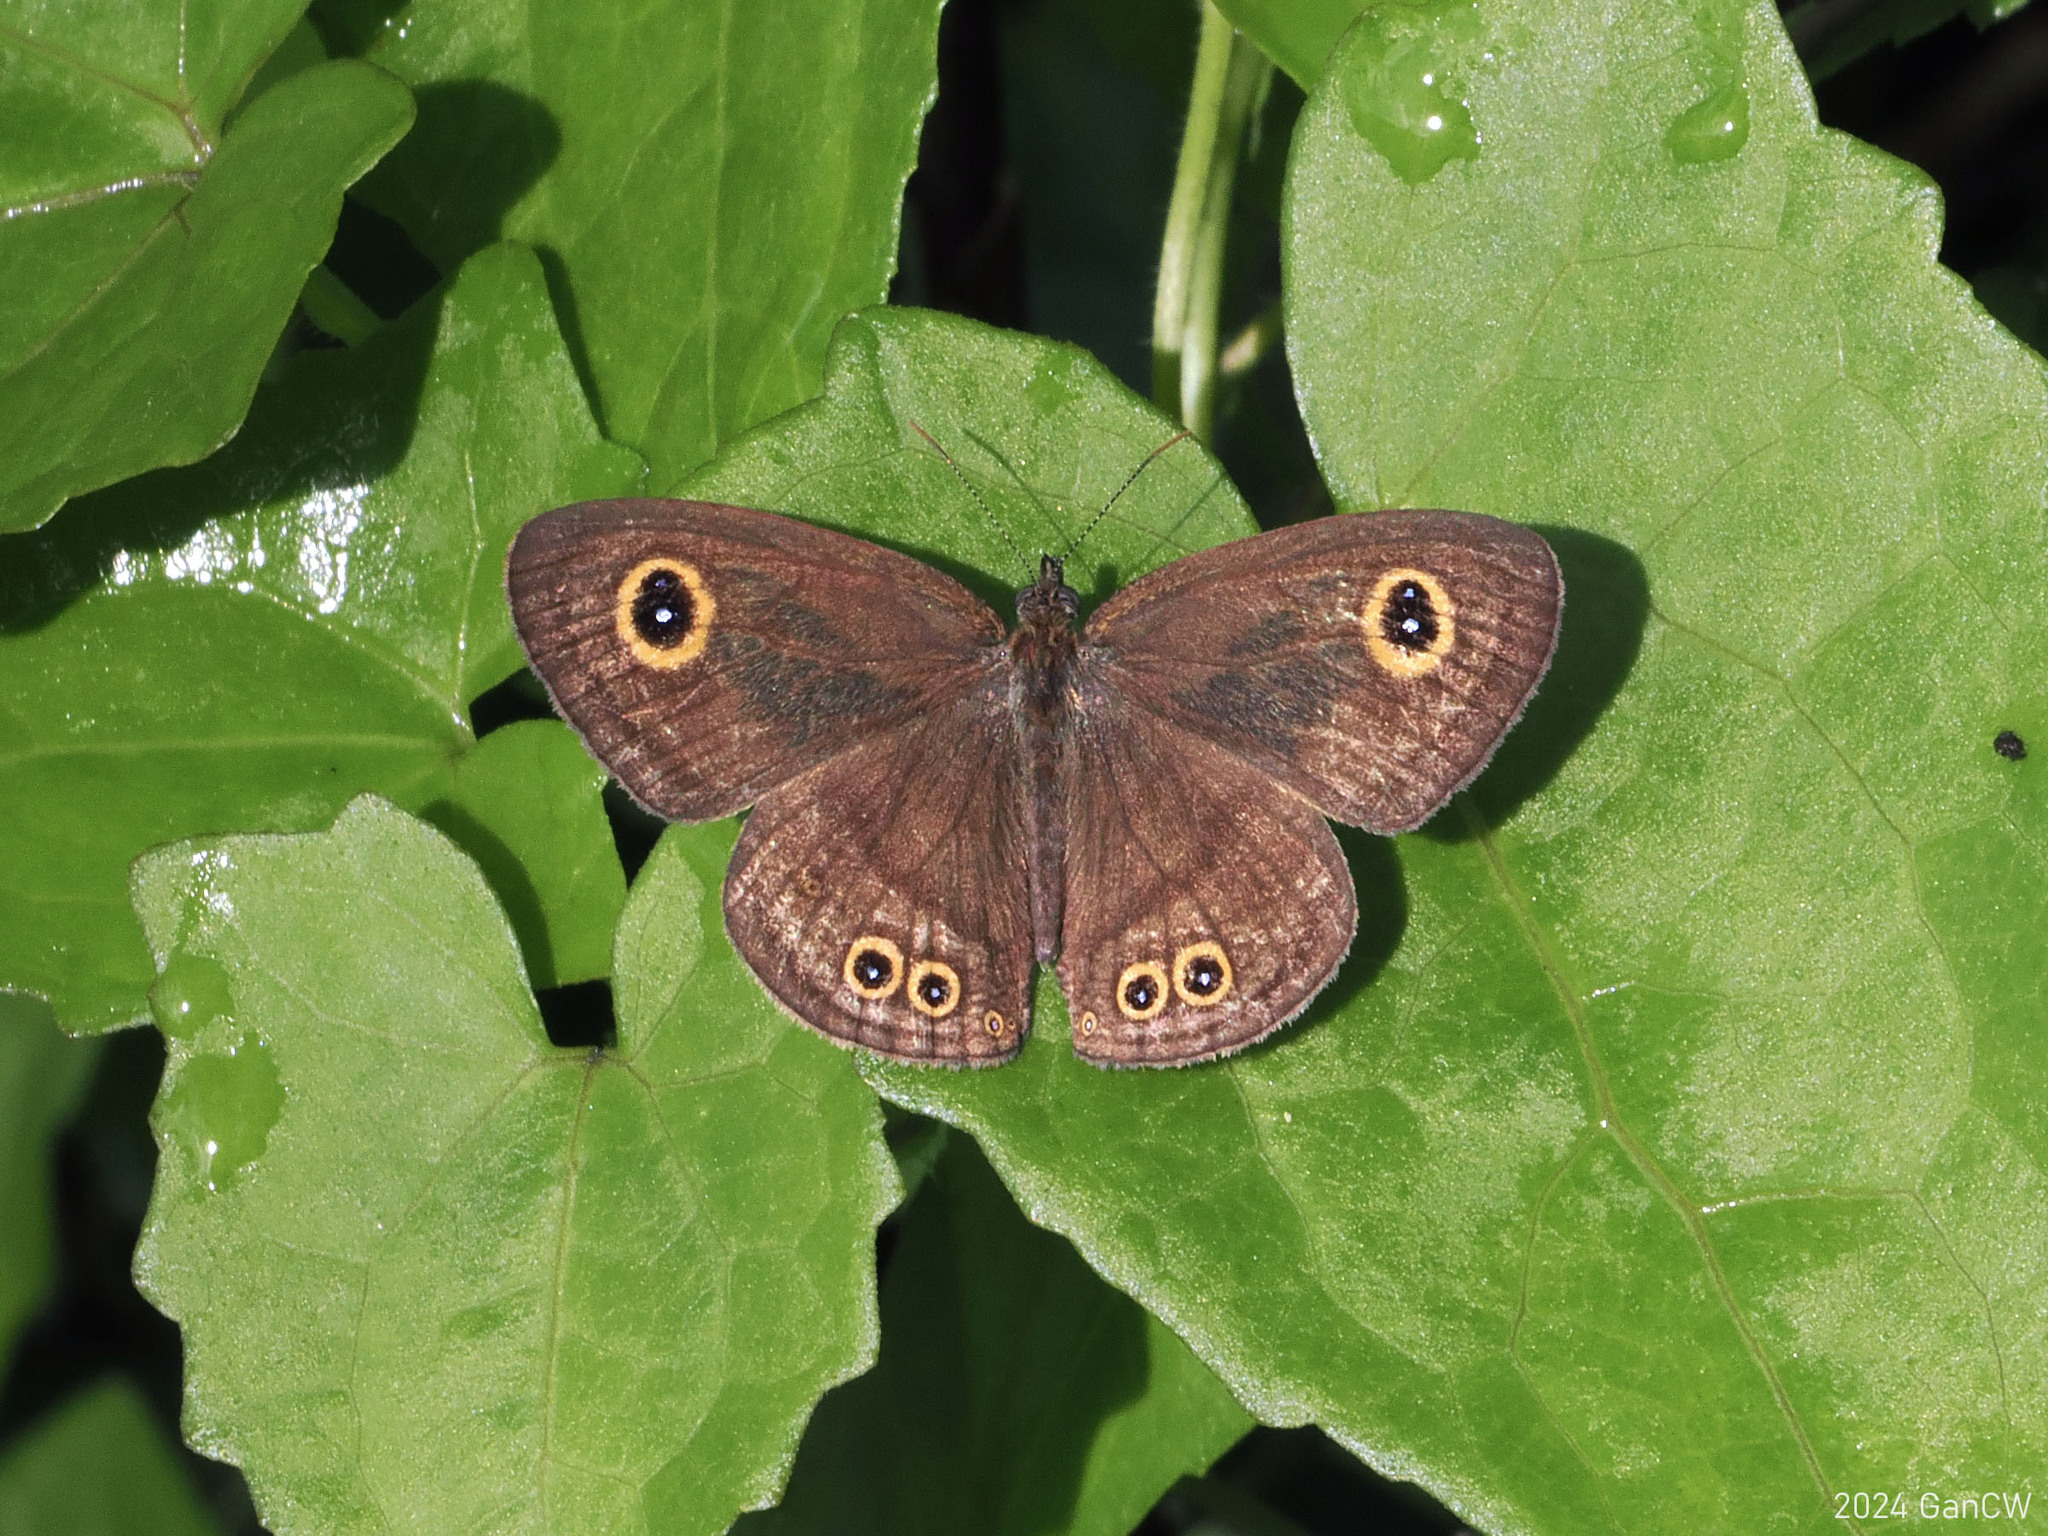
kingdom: Animalia
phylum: Arthropoda
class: Insecta
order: Lepidoptera
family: Nymphalidae
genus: Ypthima
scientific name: Ypthima stellera
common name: Philippine five-ring
